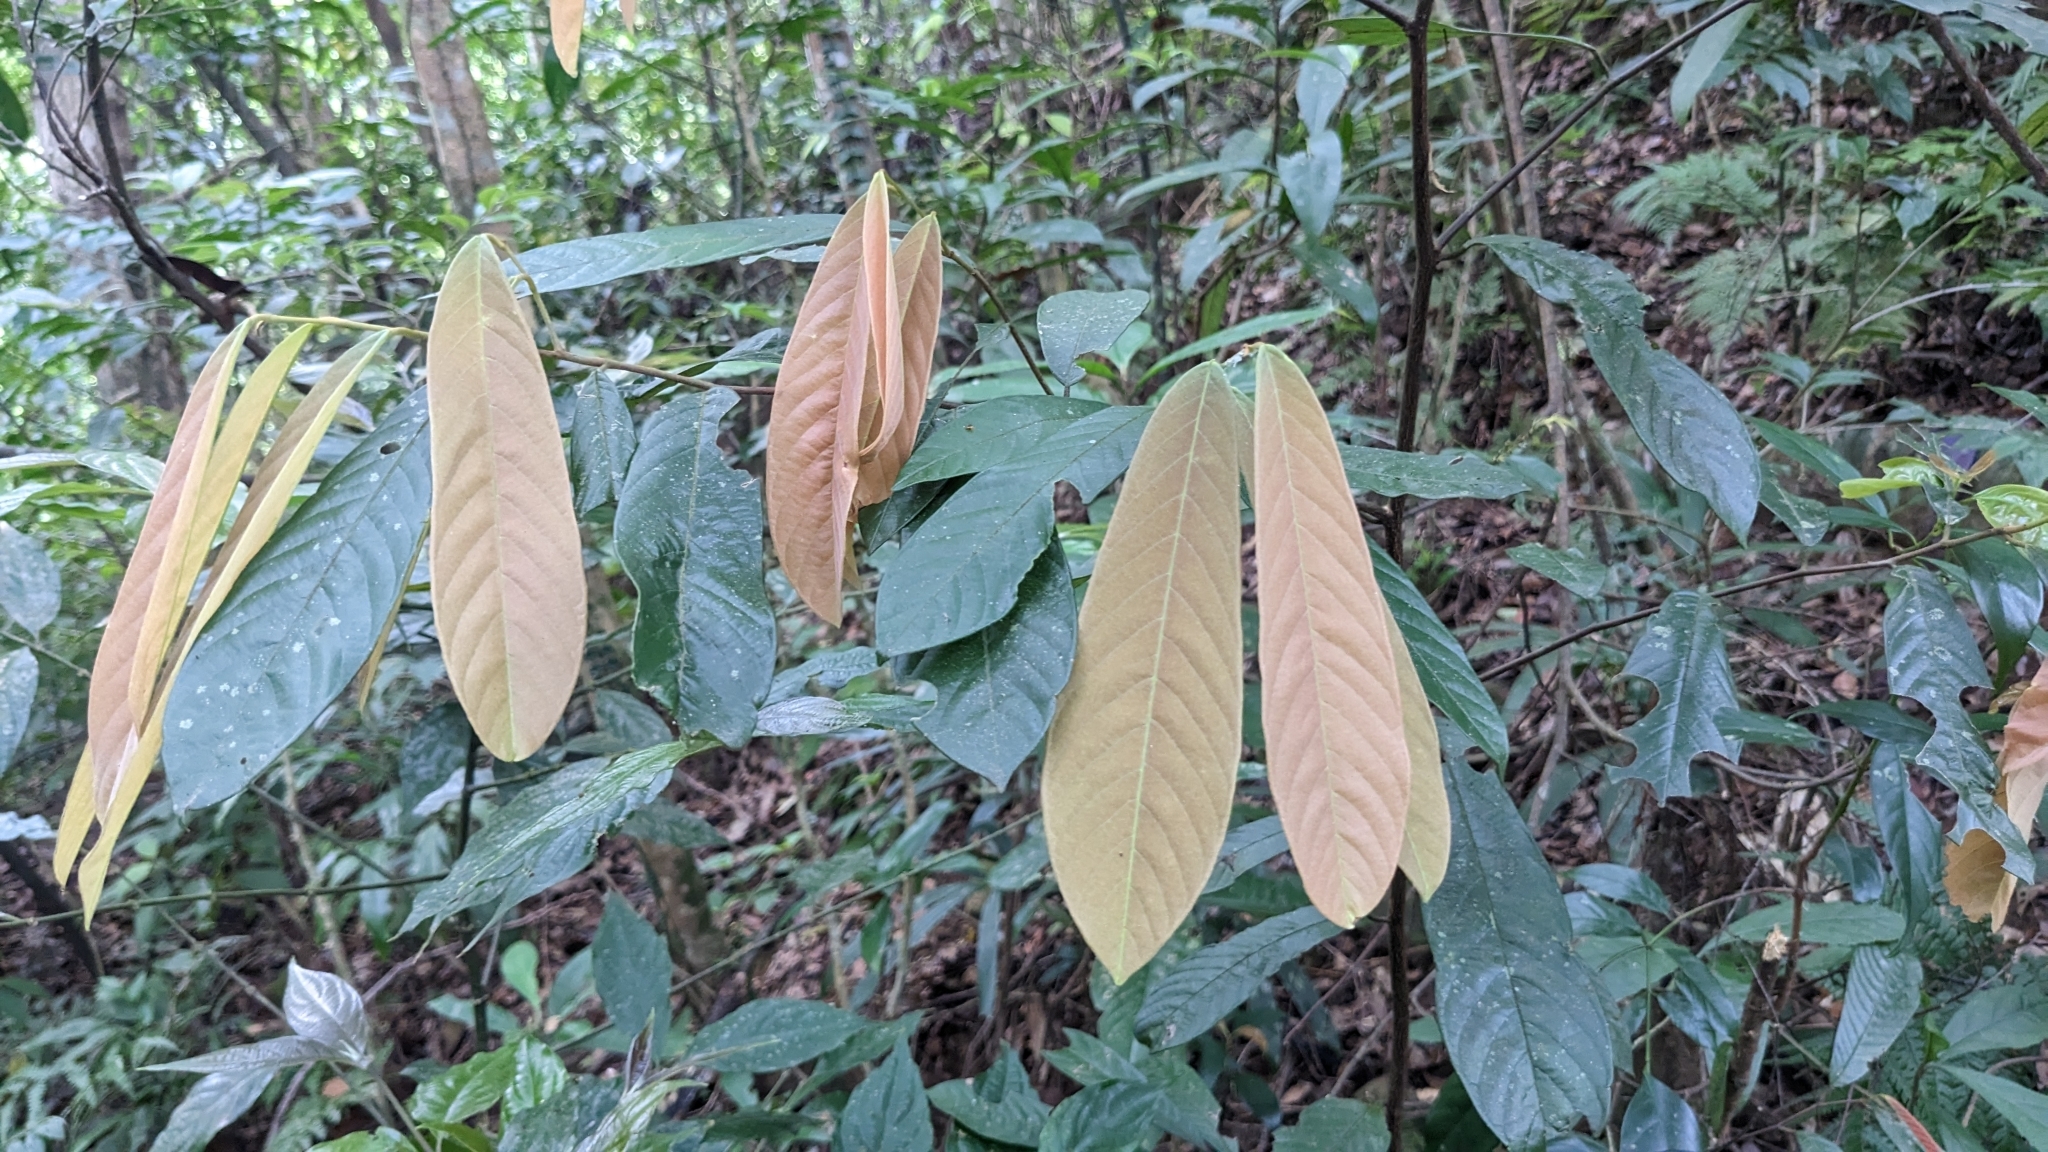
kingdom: Plantae
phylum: Tracheophyta
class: Magnoliopsida
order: Magnoliales
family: Annonaceae
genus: Fissistigma
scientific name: Fissistigma oldhamii
